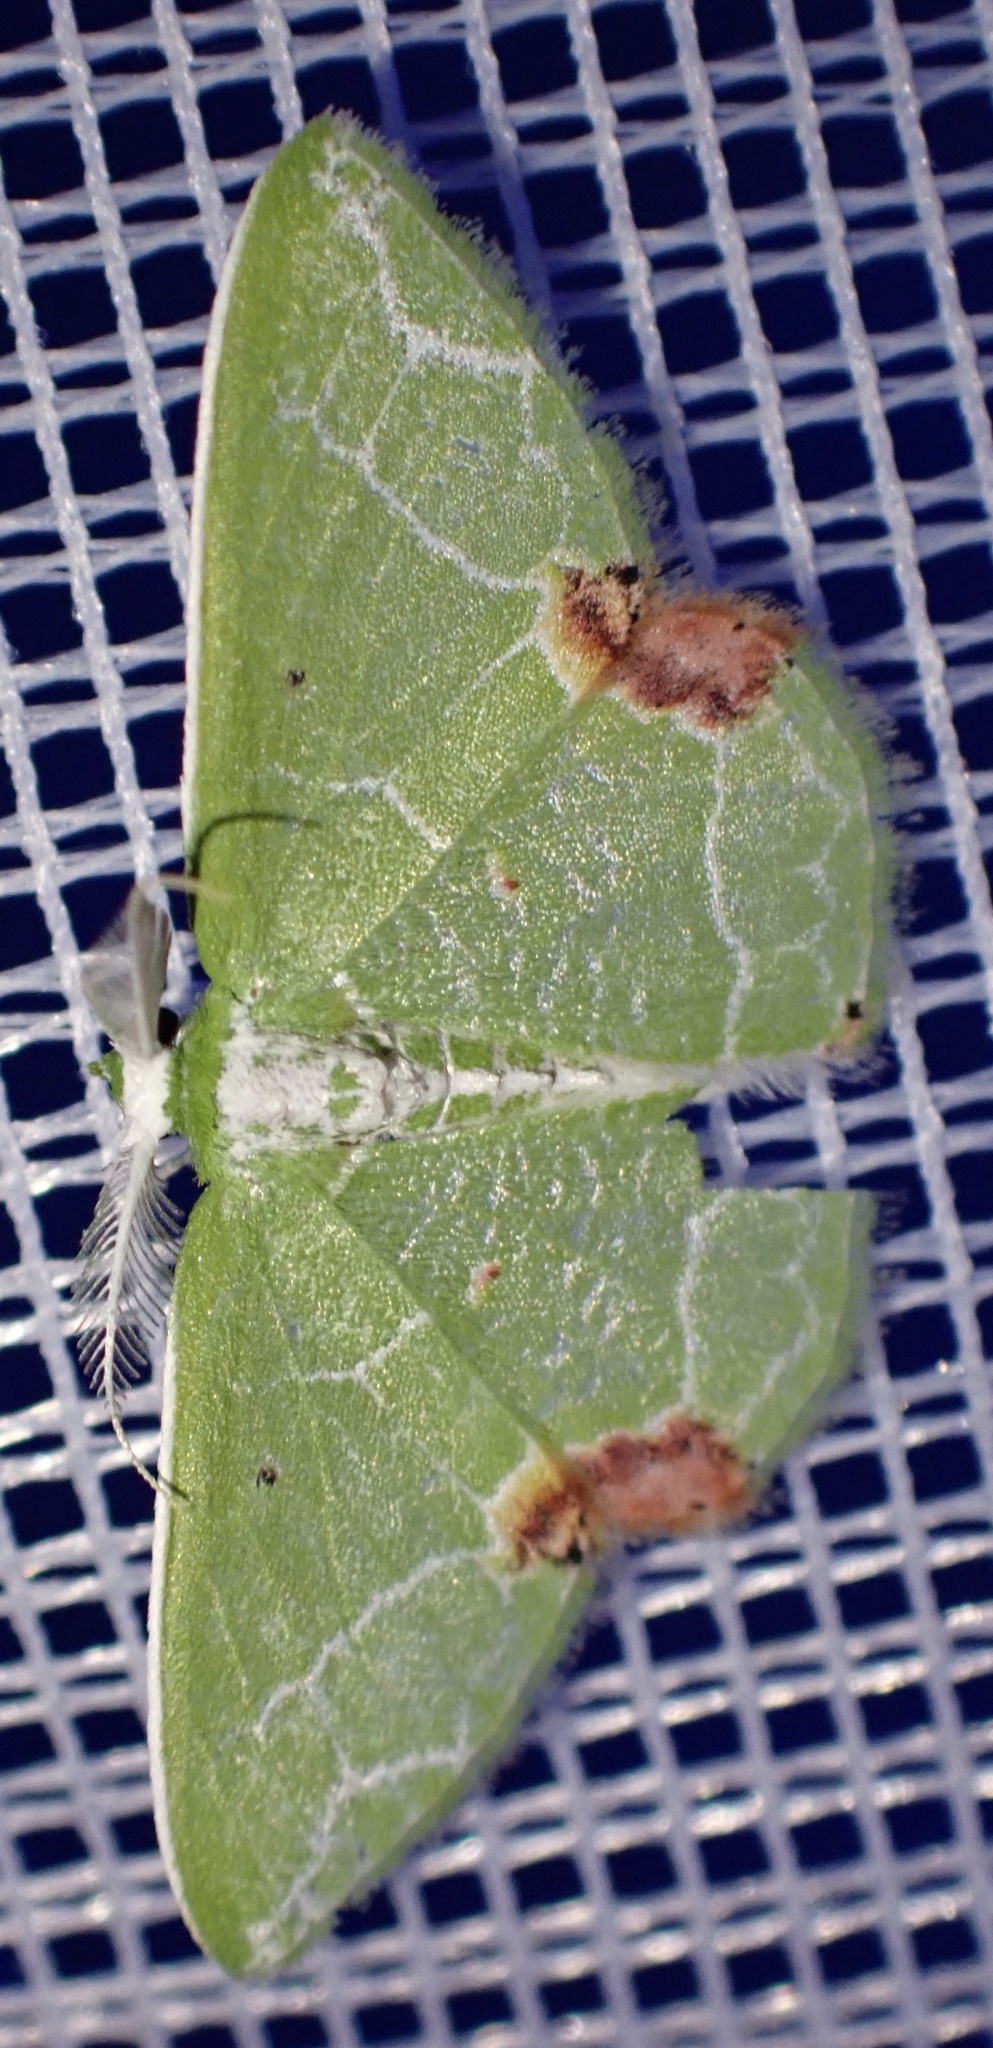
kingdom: Animalia
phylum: Arthropoda
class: Insecta
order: Lepidoptera
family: Geometridae
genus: Protuliocnemis
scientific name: Protuliocnemis biplagiata
